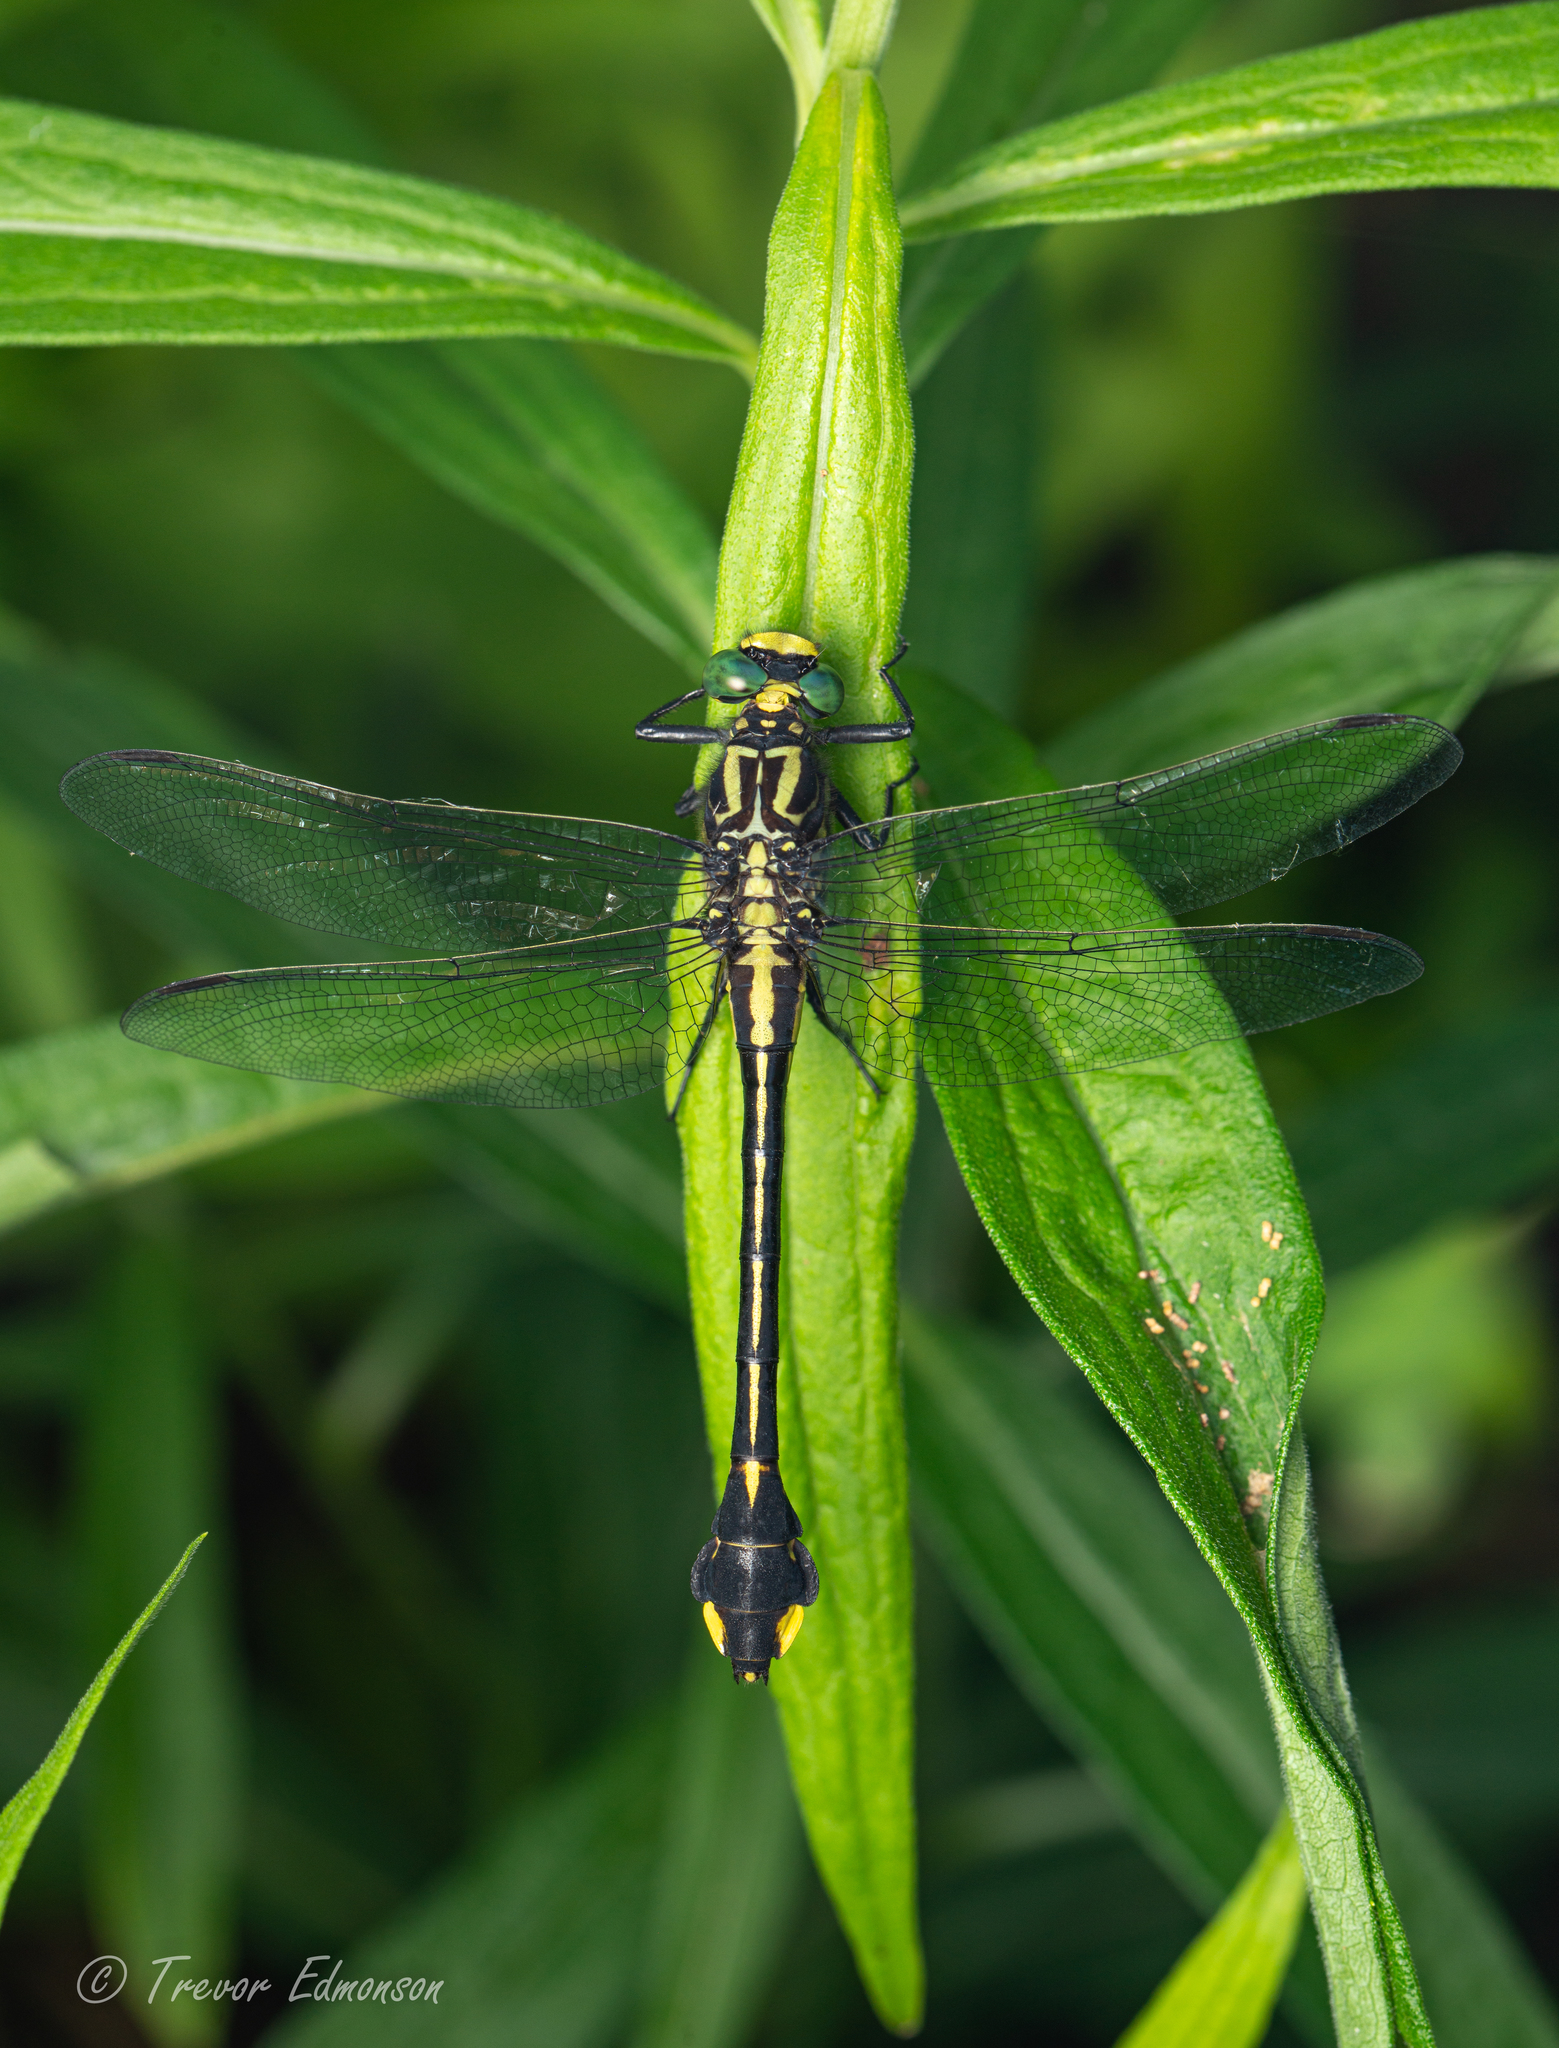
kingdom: Animalia
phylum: Arthropoda
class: Insecta
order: Odonata
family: Gomphidae
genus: Gomphurus
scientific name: Gomphurus vastus
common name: Cobra clubtail
